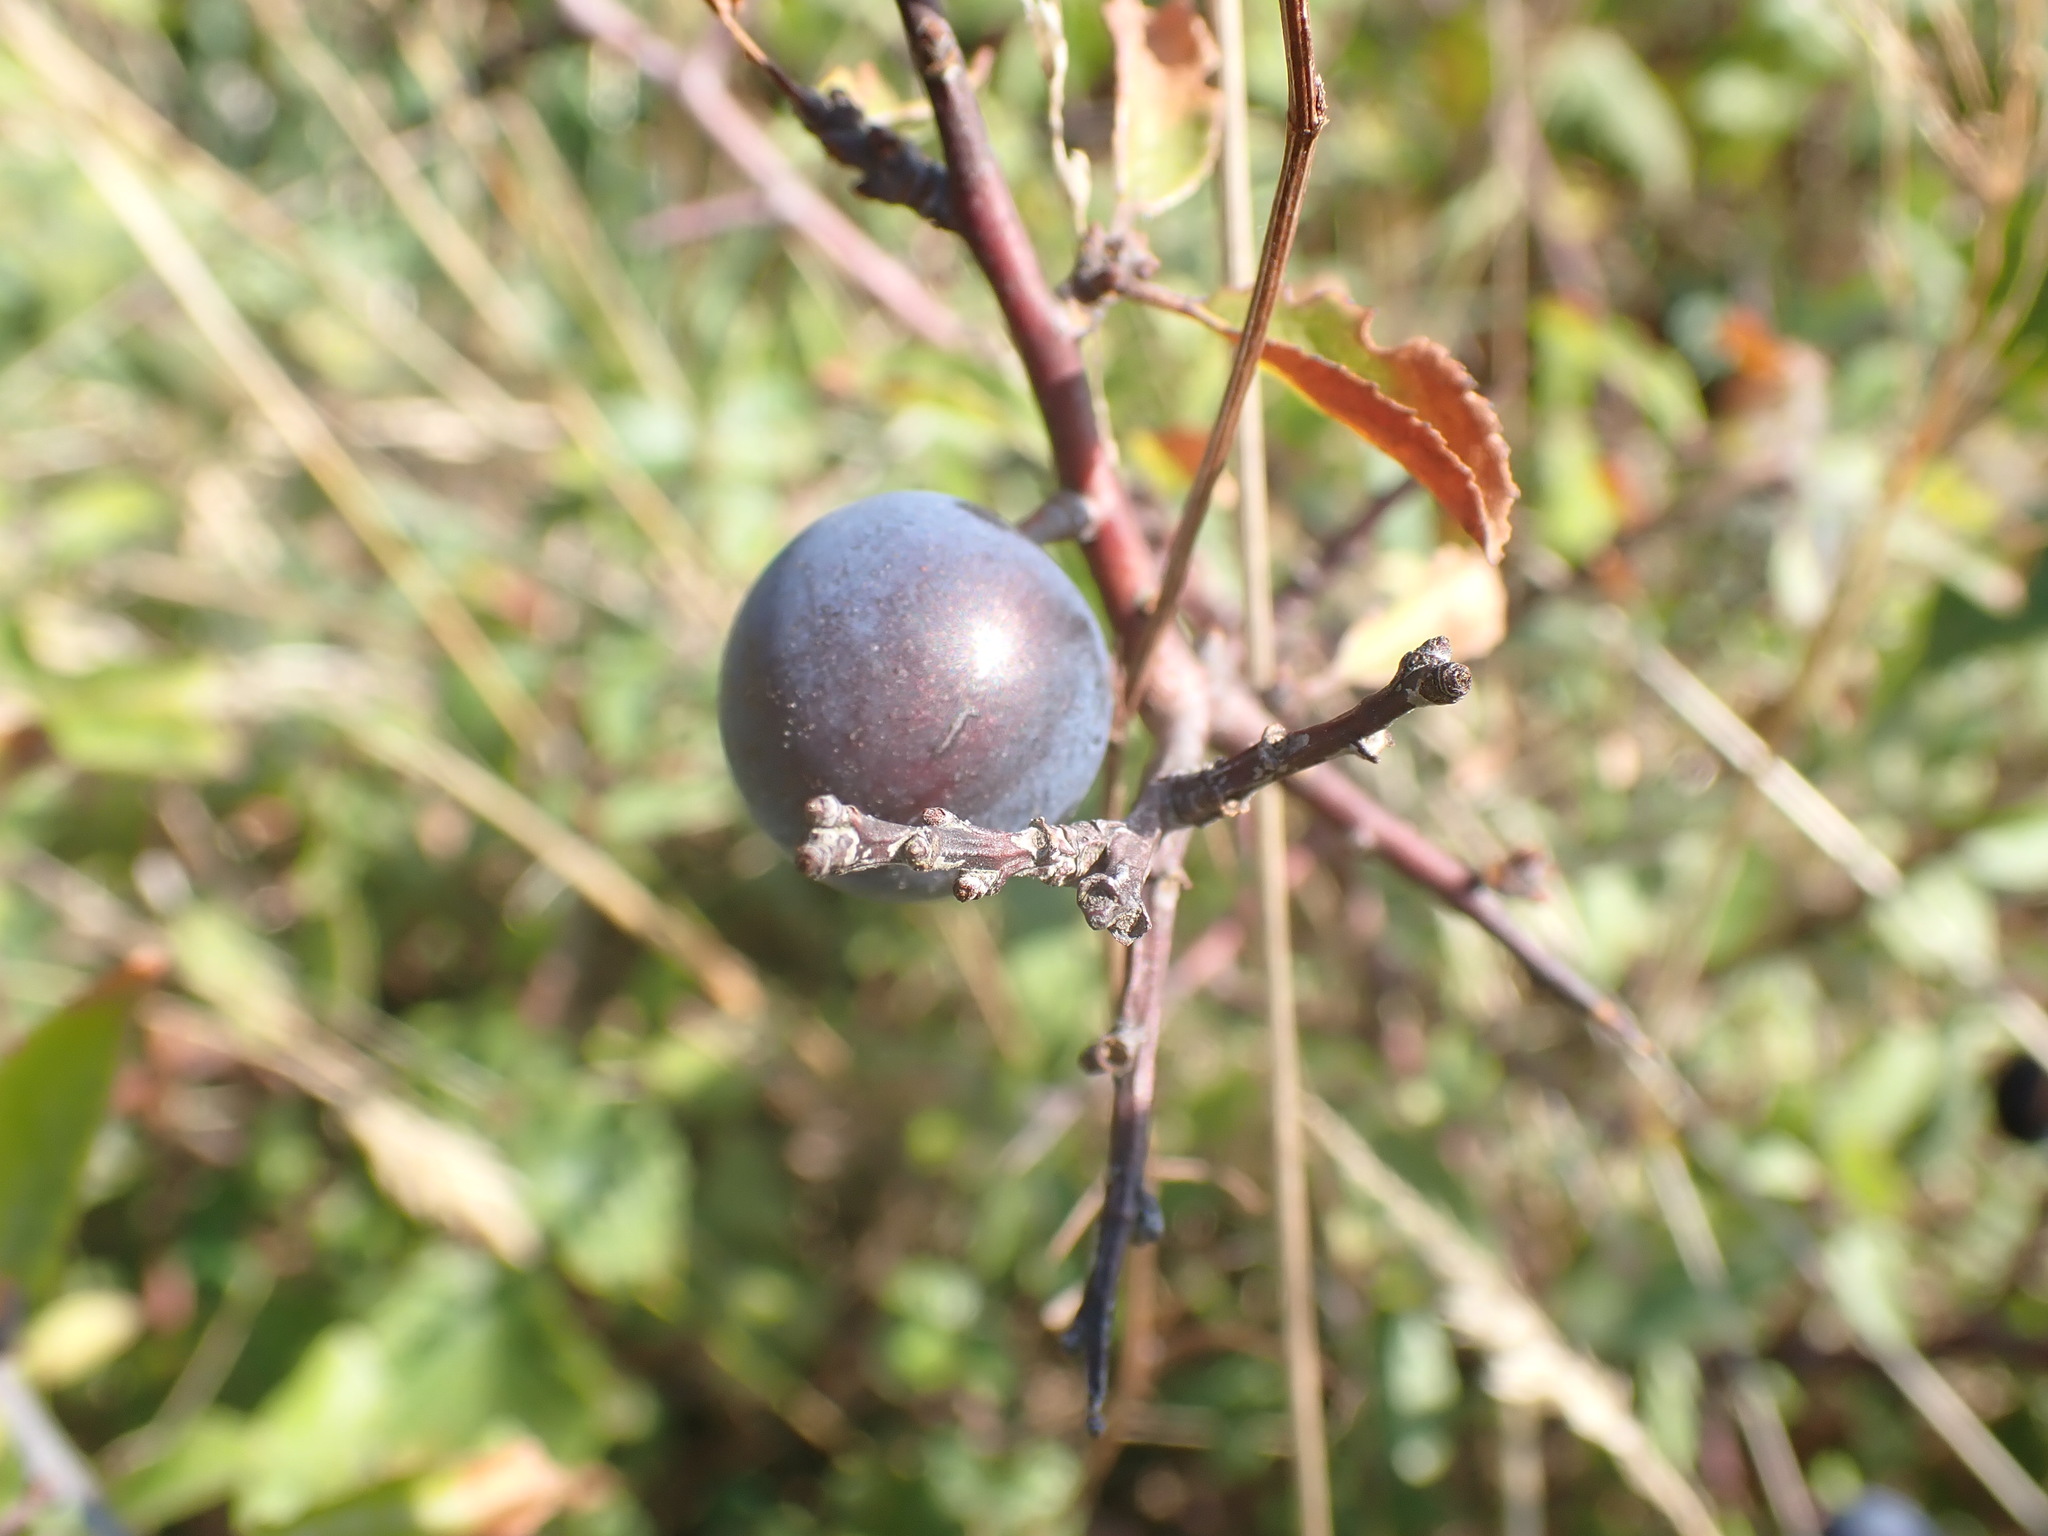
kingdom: Plantae
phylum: Tracheophyta
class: Magnoliopsida
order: Rosales
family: Rosaceae
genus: Prunus
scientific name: Prunus spinosa
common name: Blackthorn
